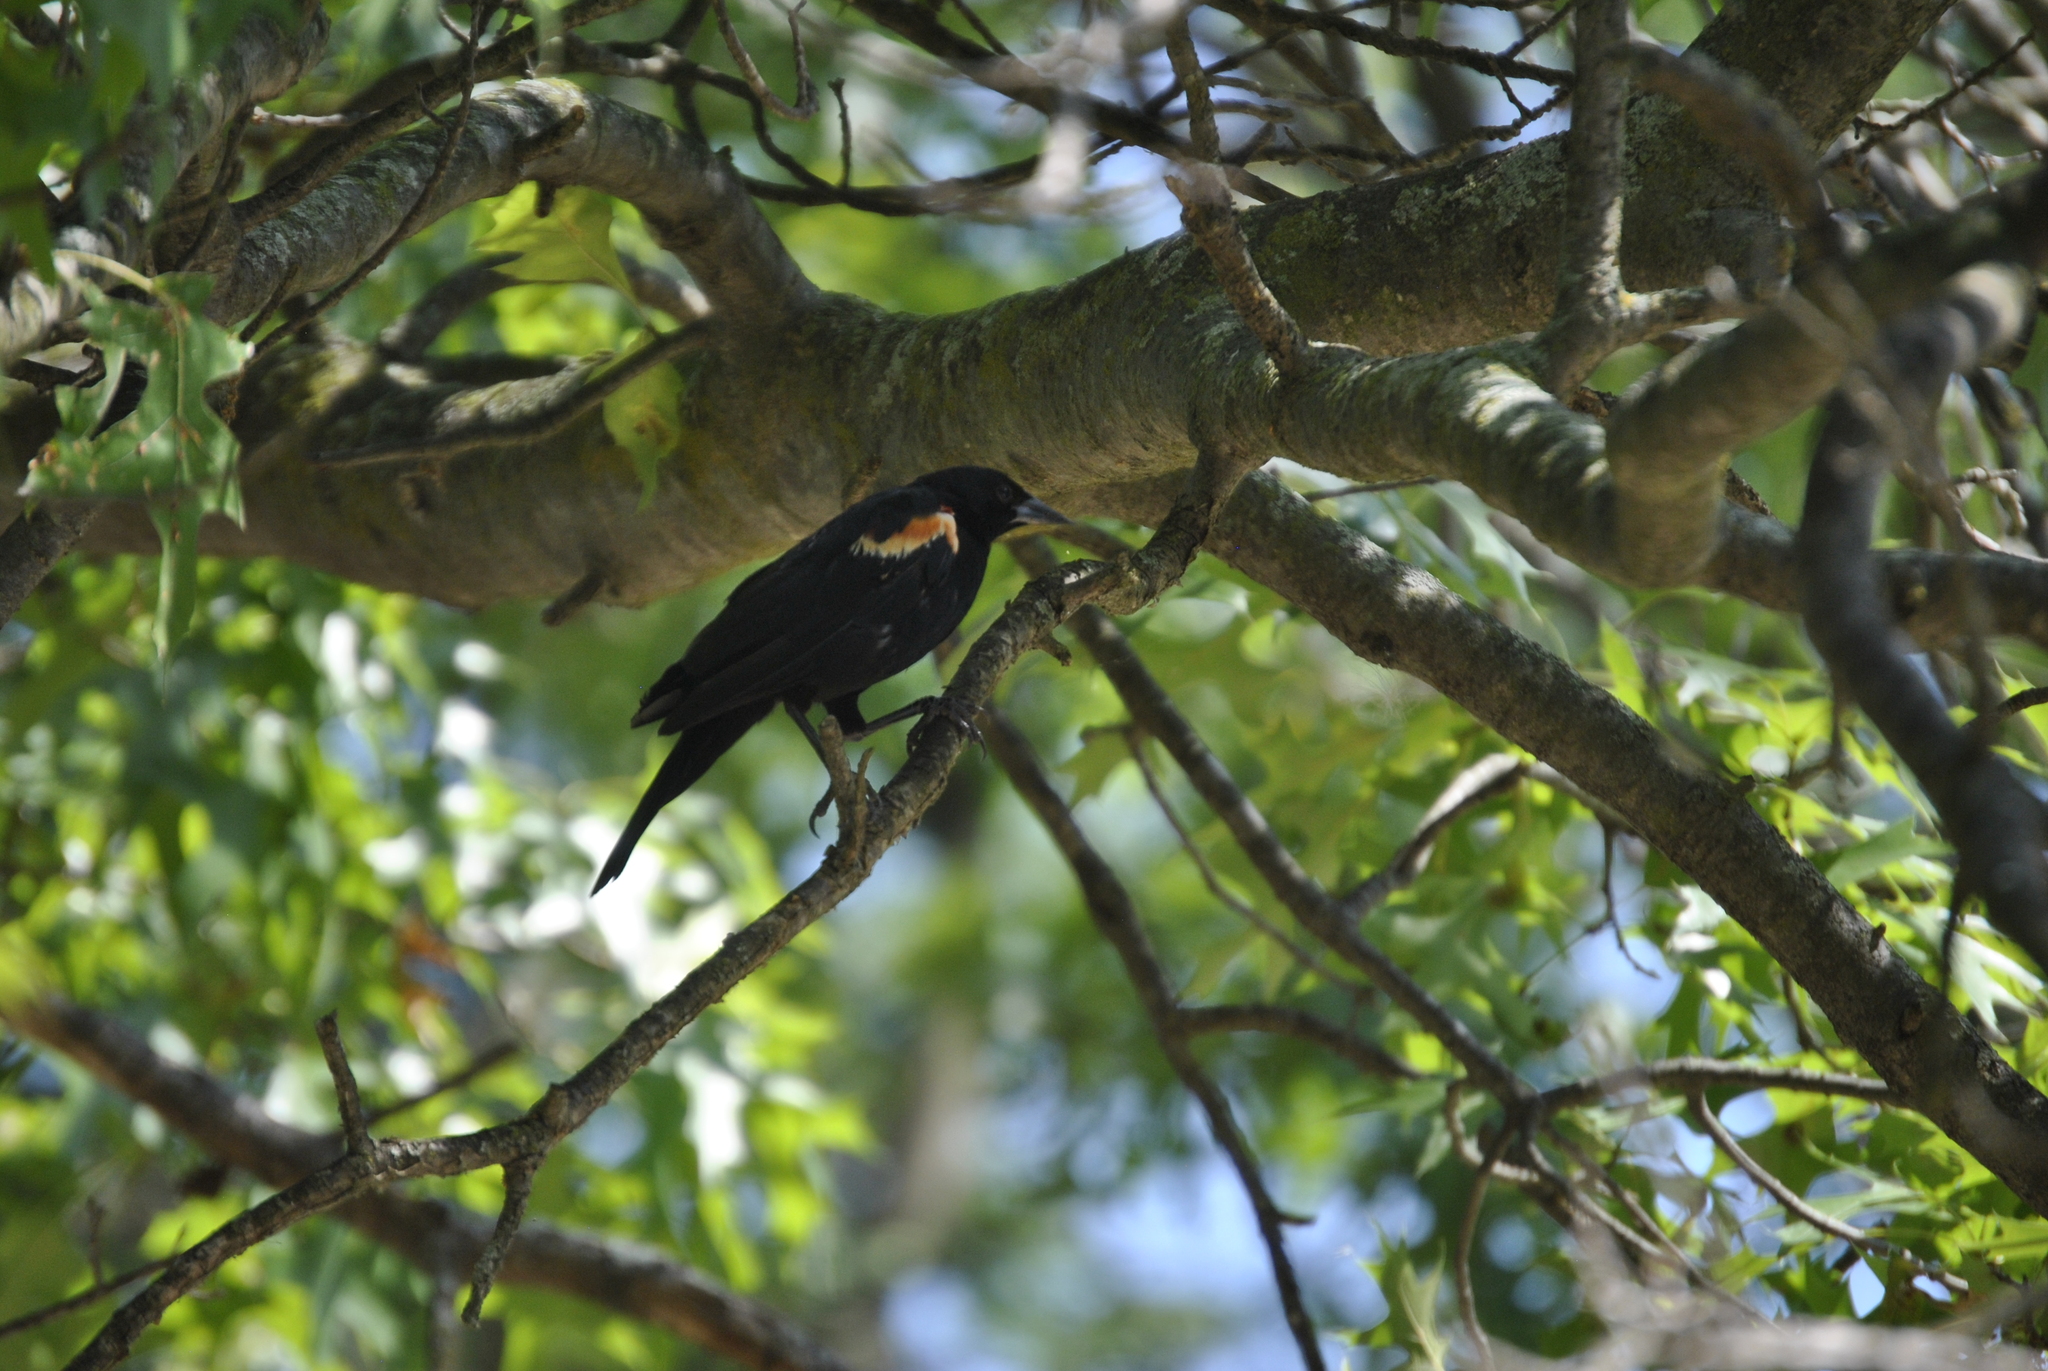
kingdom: Animalia
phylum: Chordata
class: Aves
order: Passeriformes
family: Icteridae
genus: Agelaius
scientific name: Agelaius phoeniceus
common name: Red-winged blackbird
